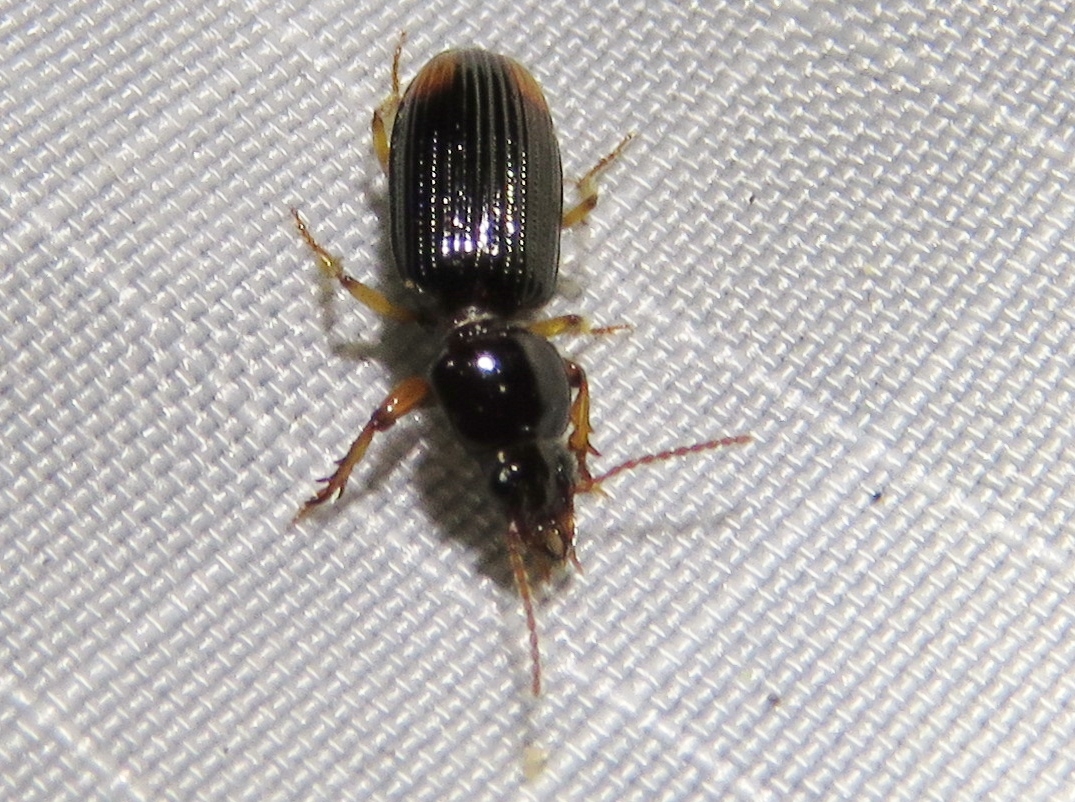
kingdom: Animalia
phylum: Arthropoda
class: Insecta
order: Coleoptera
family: Carabidae
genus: Aspidoglossa
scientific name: Aspidoglossa subangulata
